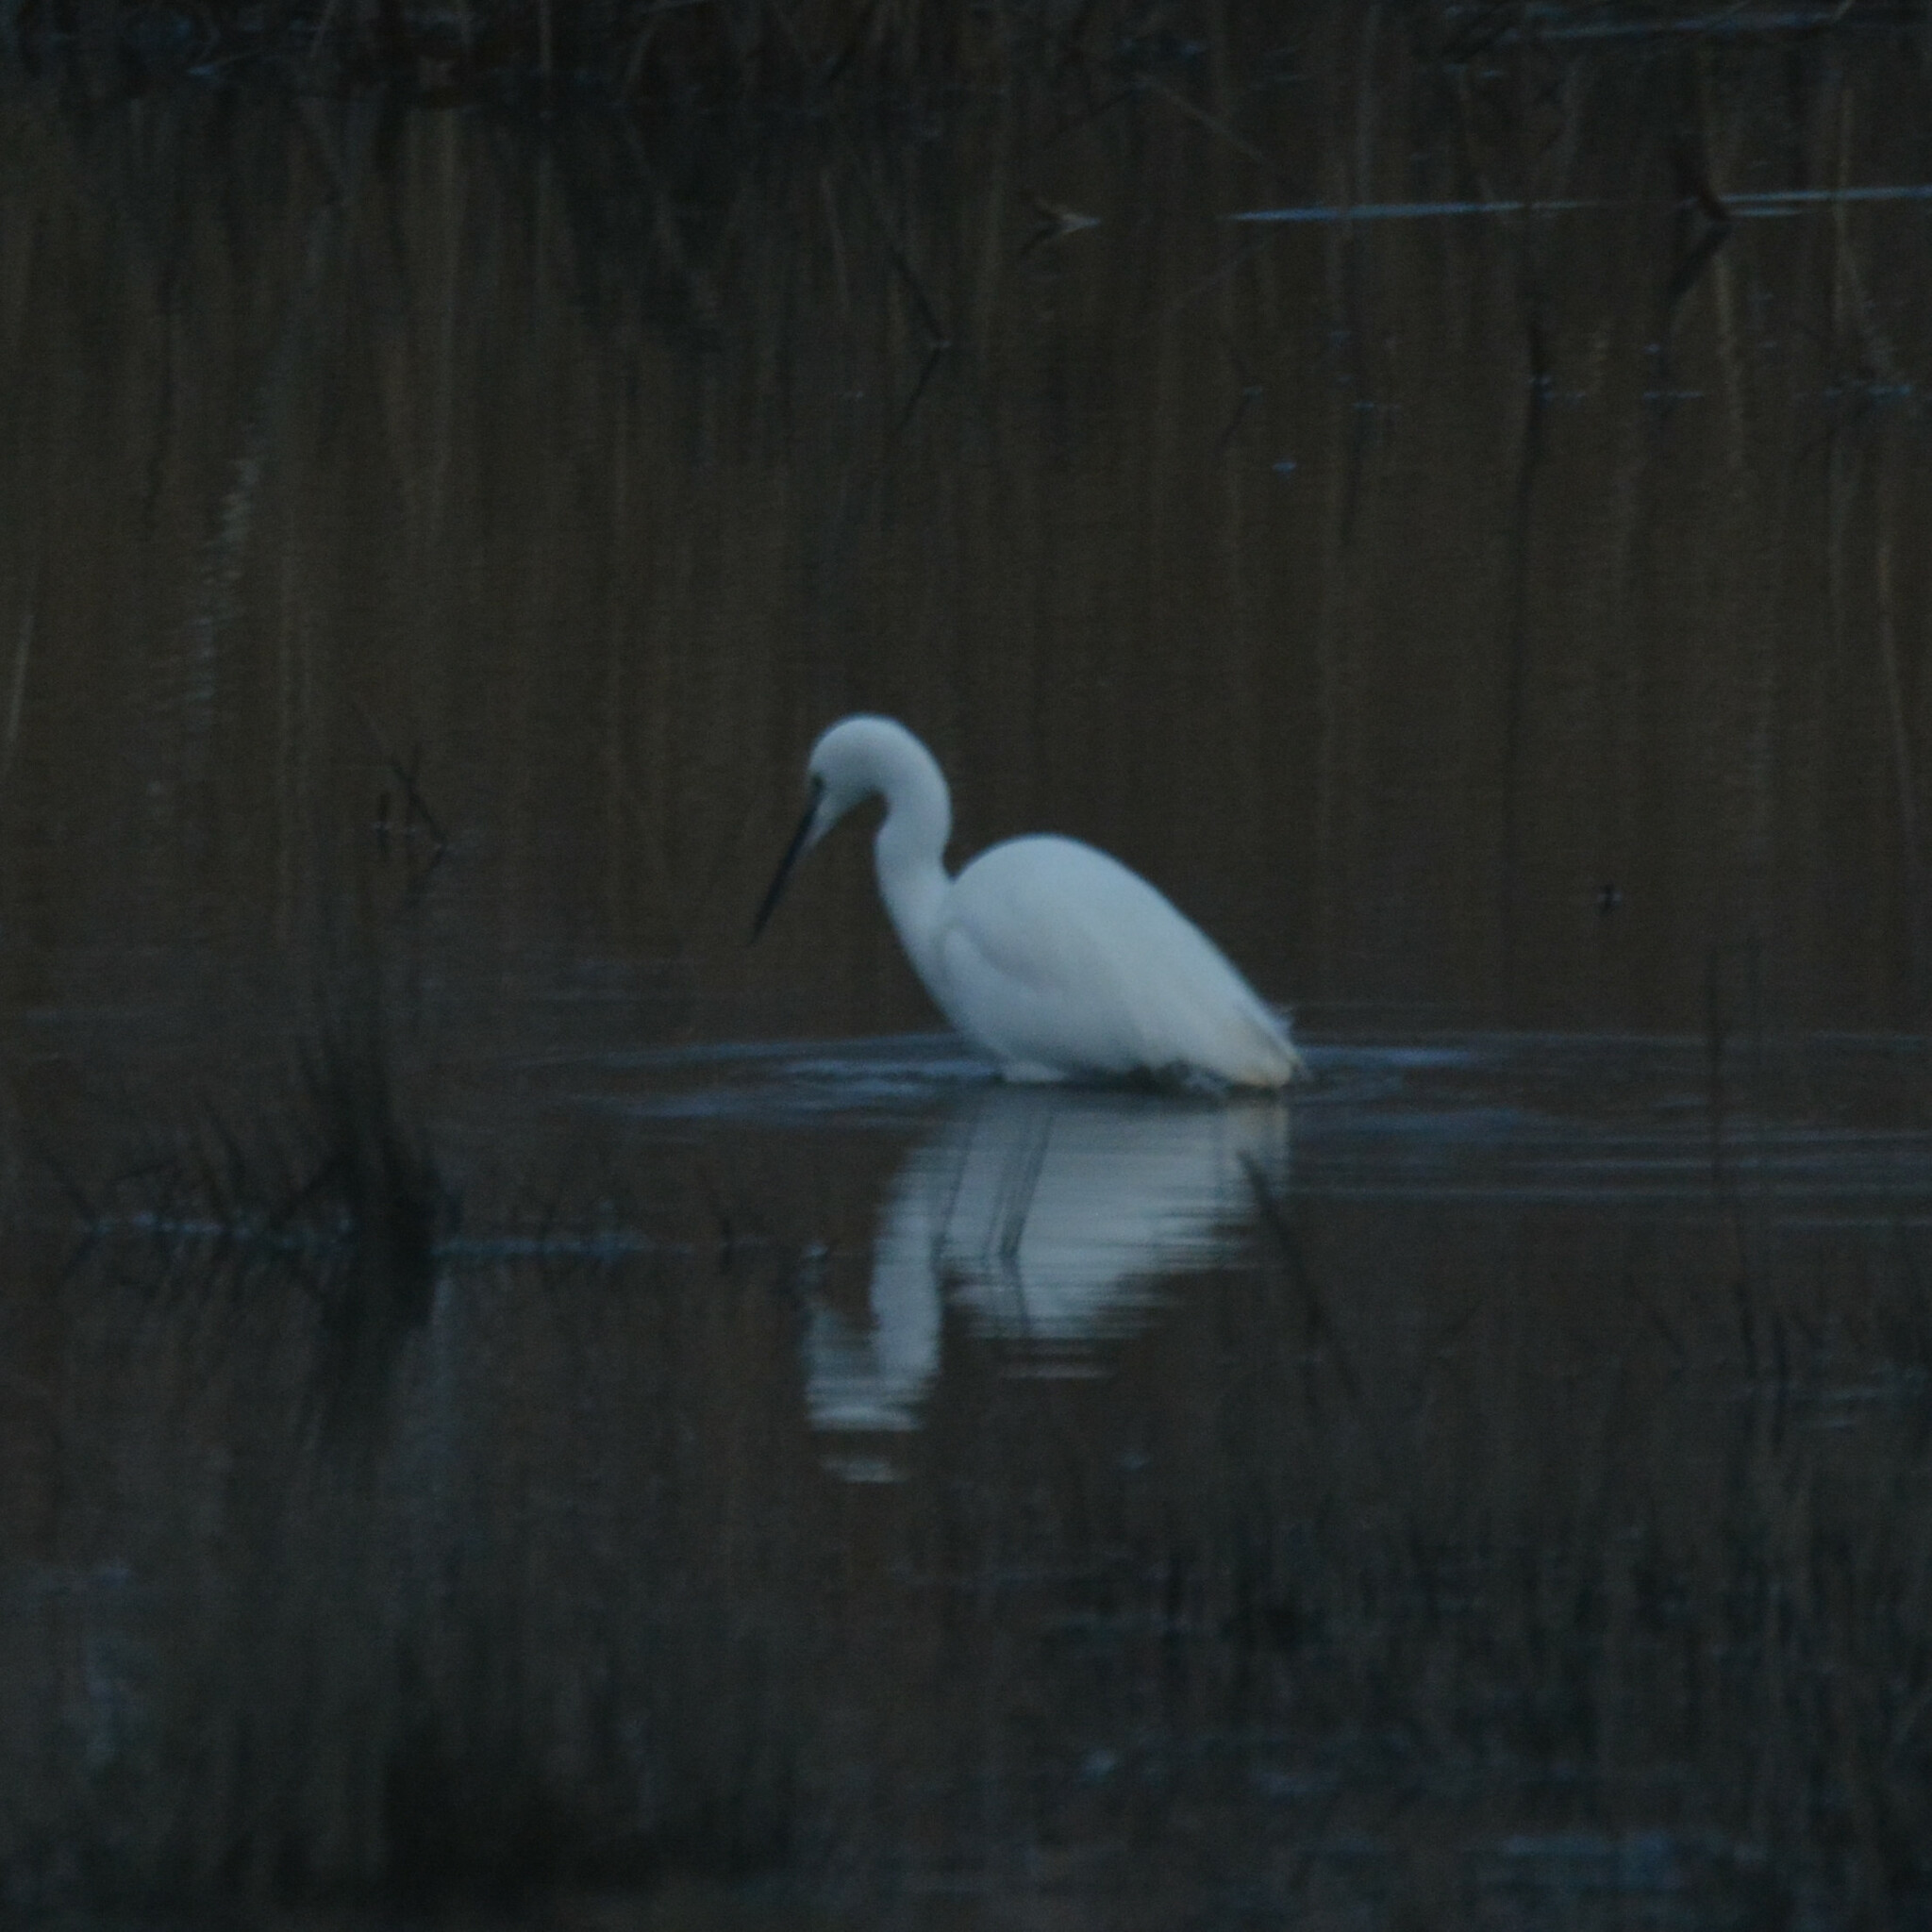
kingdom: Animalia
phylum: Chordata
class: Aves
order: Pelecaniformes
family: Ardeidae
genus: Egretta
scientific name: Egretta garzetta
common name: Little egret
